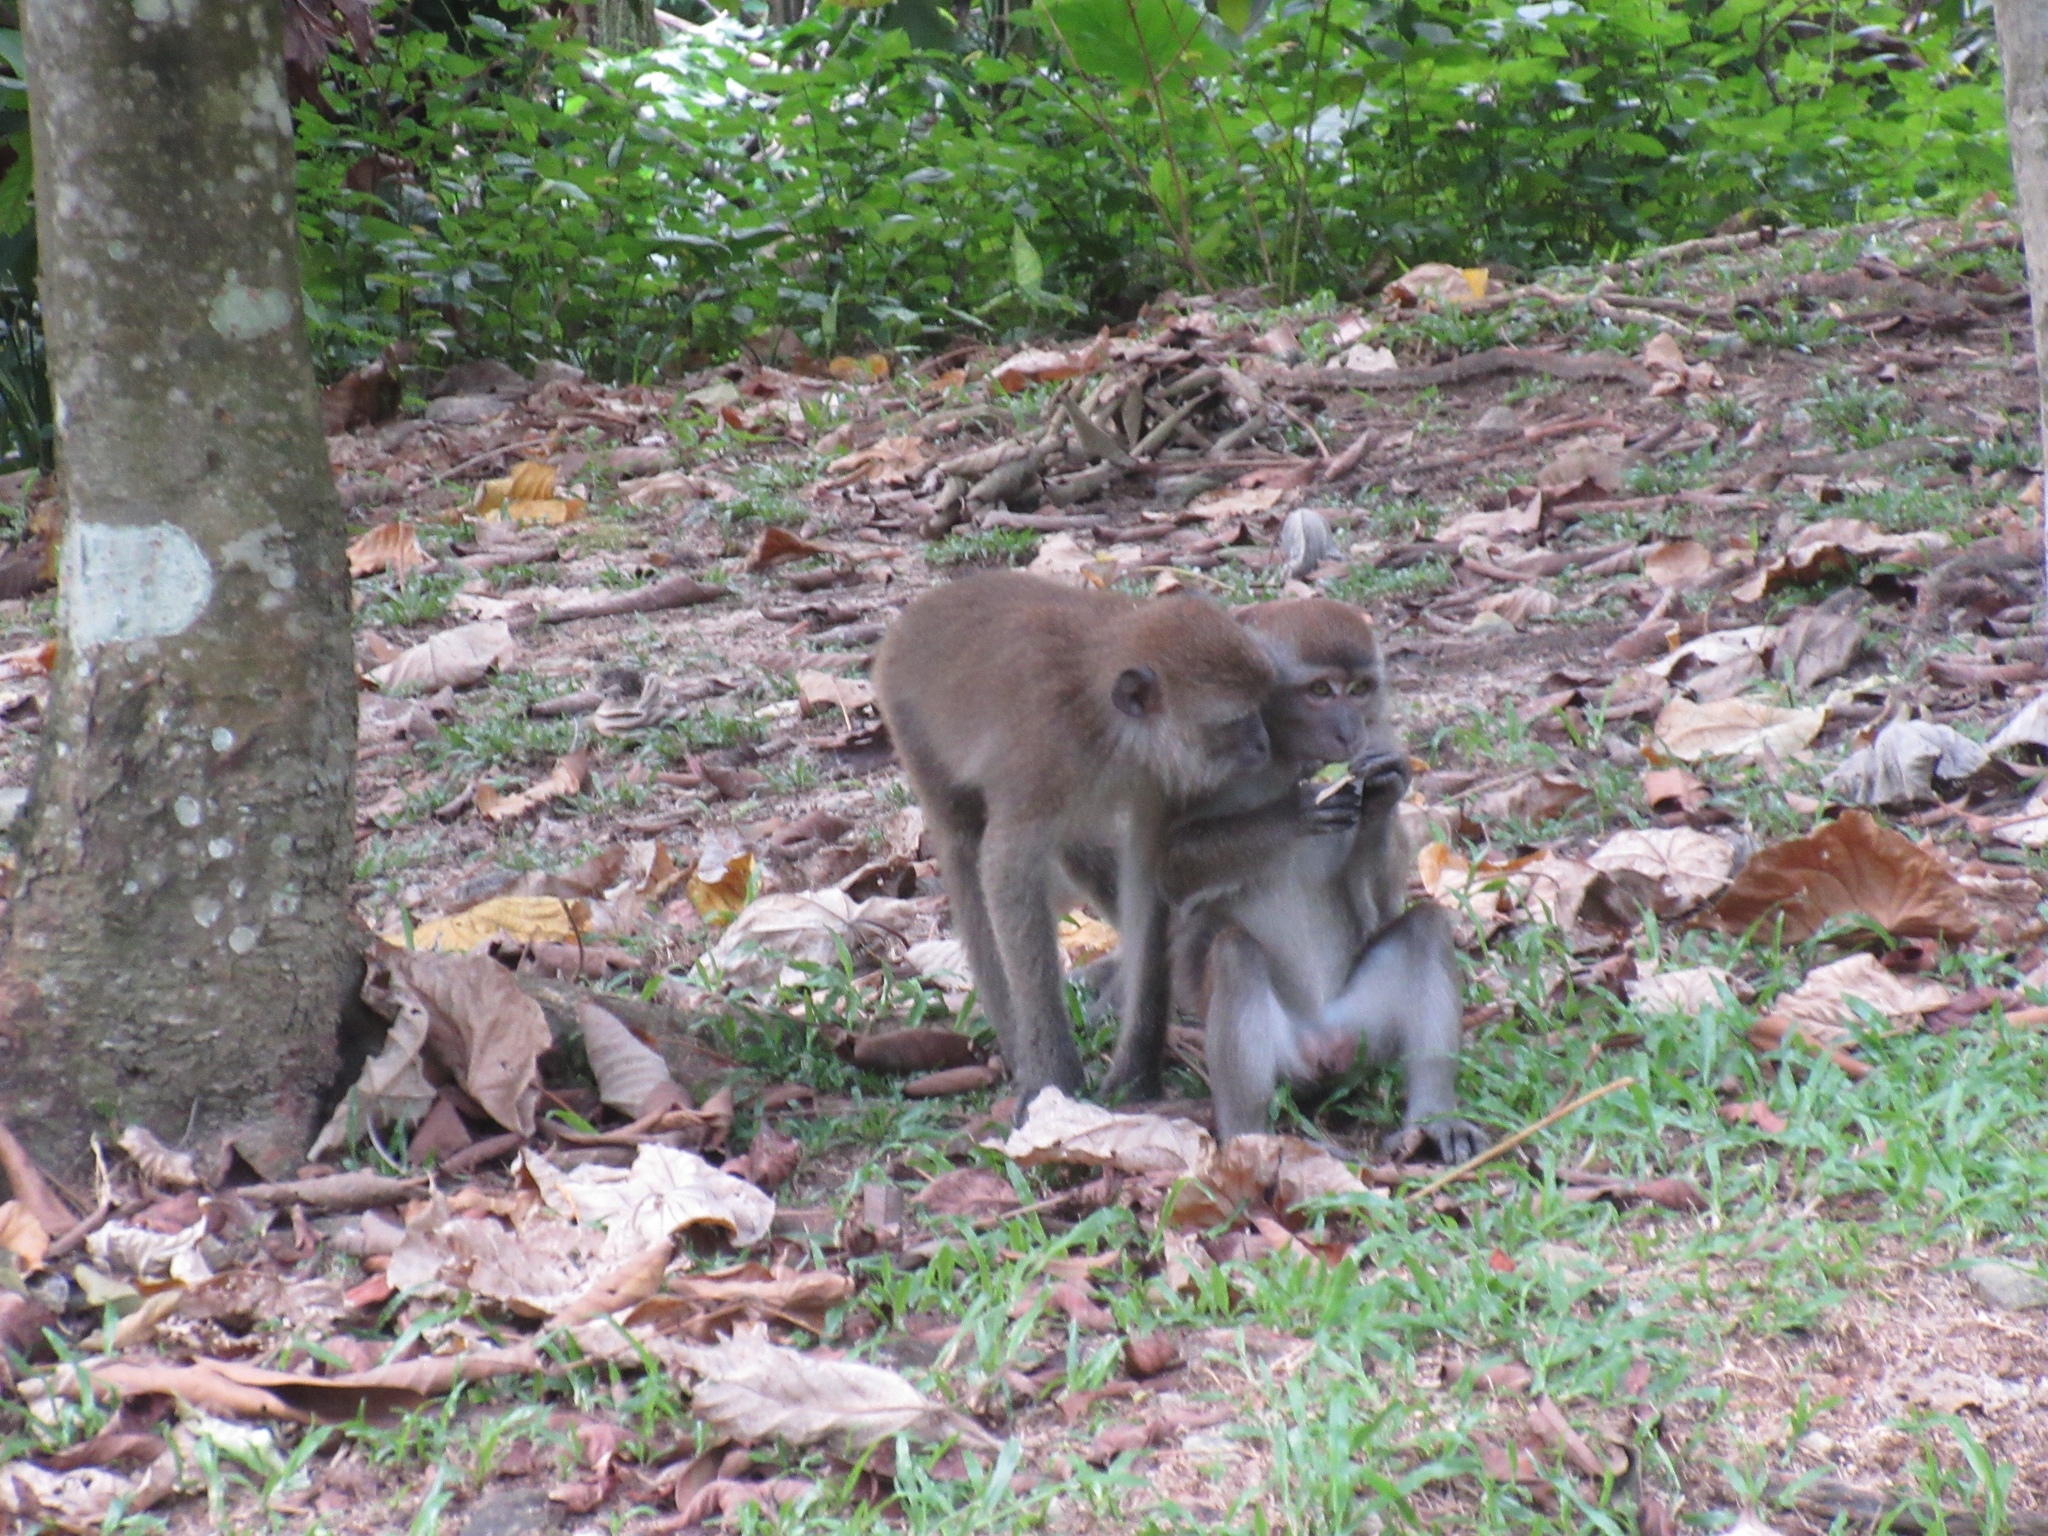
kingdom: Animalia
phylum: Chordata
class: Mammalia
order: Primates
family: Cercopithecidae
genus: Macaca
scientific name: Macaca fascicularis
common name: Crab-eating macaque
